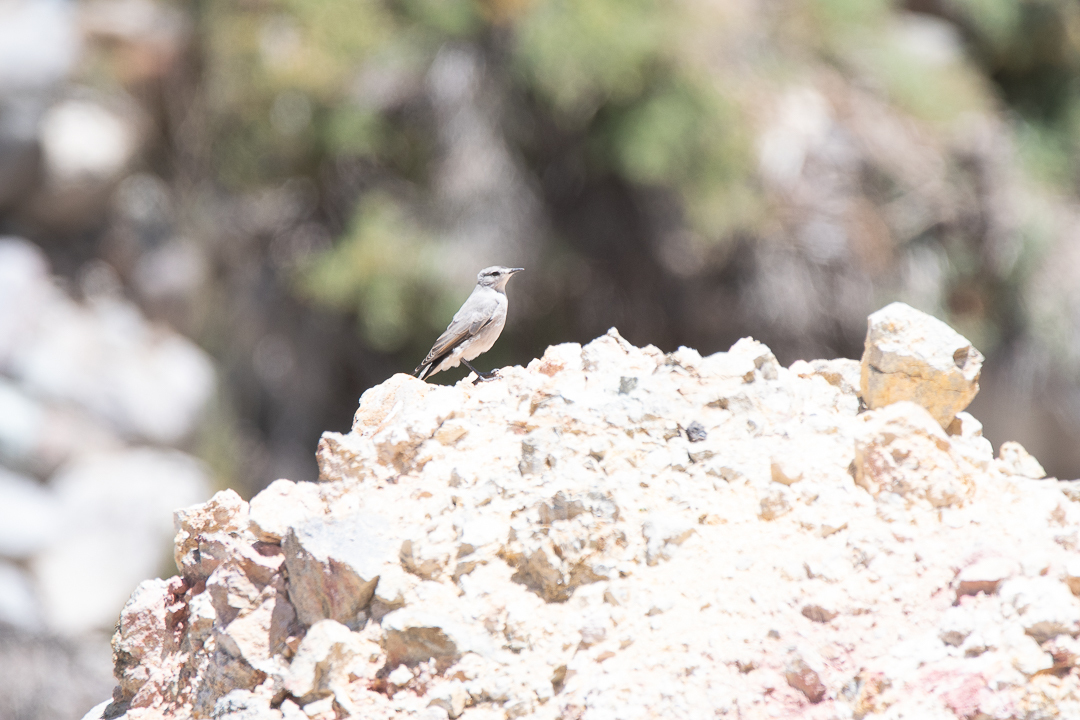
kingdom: Animalia
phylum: Chordata
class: Aves
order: Passeriformes
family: Tyrannidae
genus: Muscisaxicola
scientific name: Muscisaxicola frontalis
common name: Black-fronted ground tyrant
